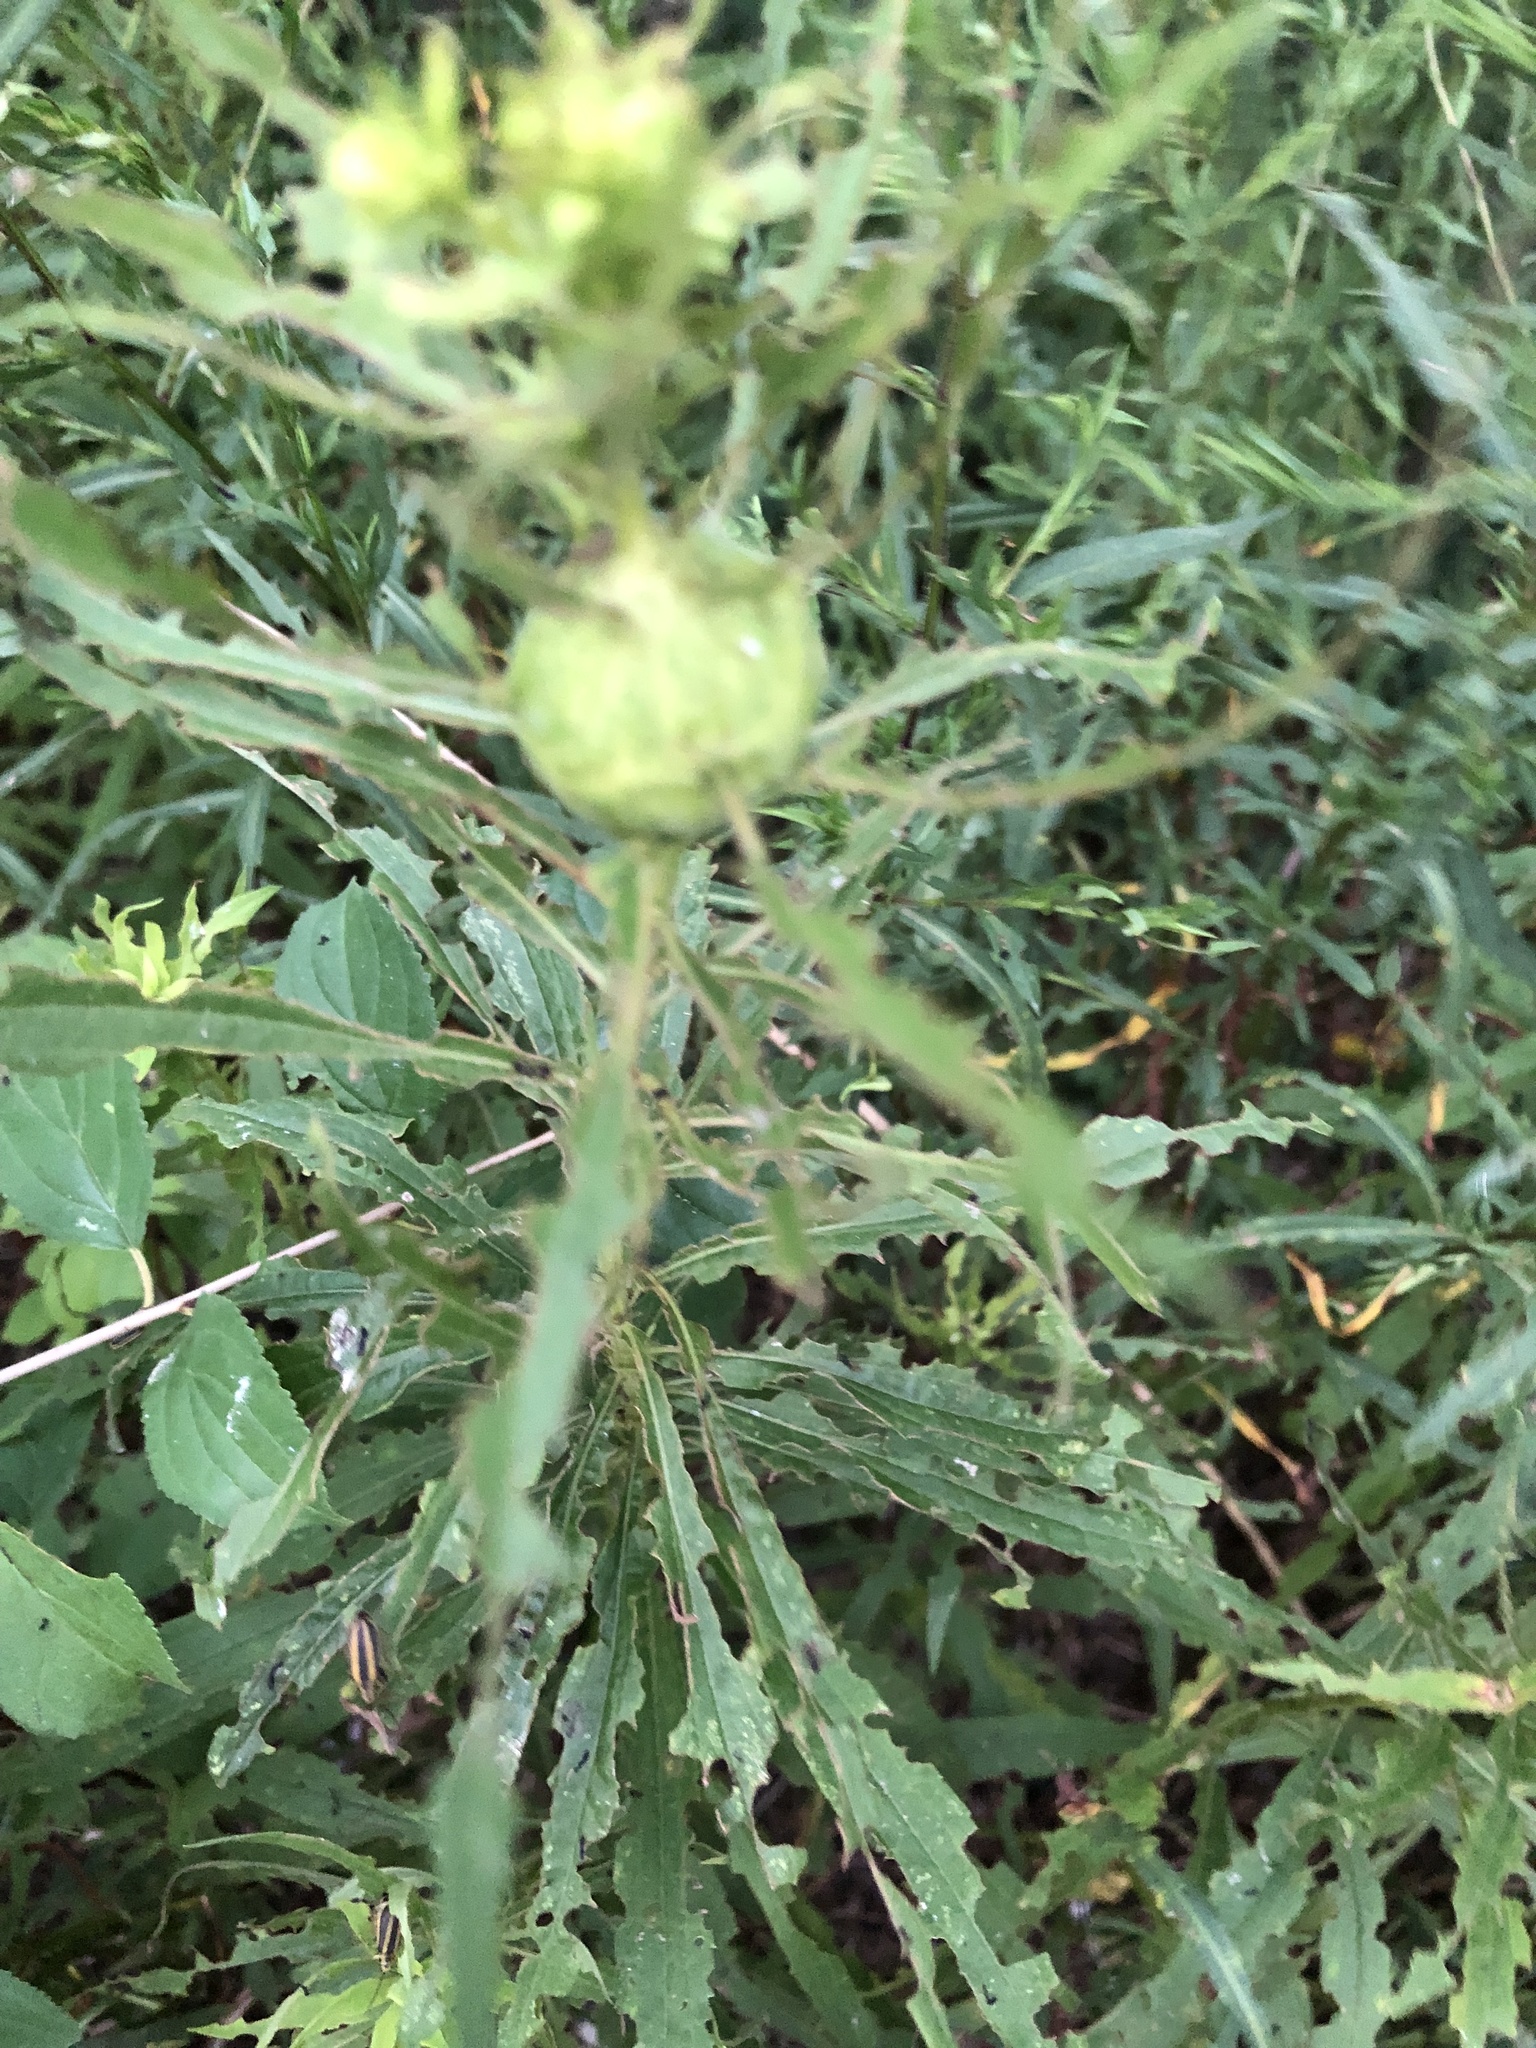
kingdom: Animalia
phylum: Arthropoda
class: Insecta
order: Diptera
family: Tephritidae
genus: Eurosta
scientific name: Eurosta solidaginis
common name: Goldenrod gall fly
